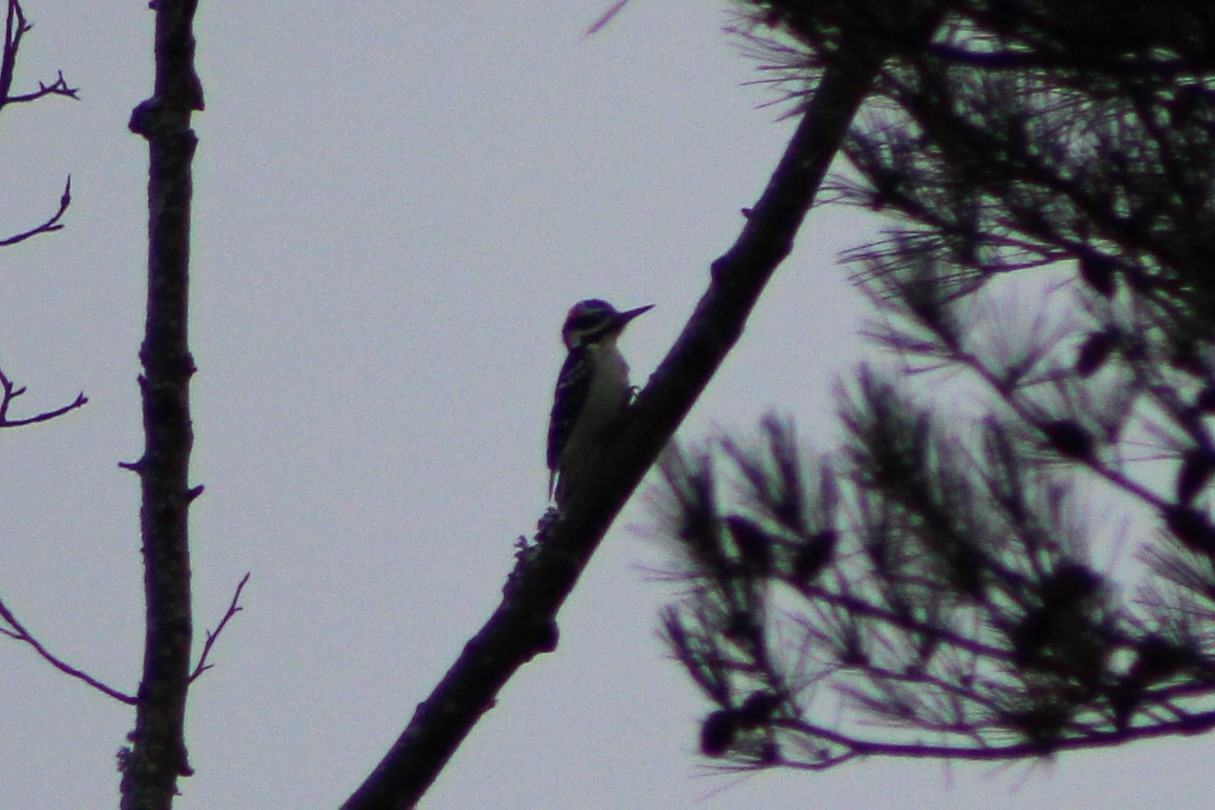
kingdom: Animalia
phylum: Chordata
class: Aves
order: Piciformes
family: Picidae
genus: Leuconotopicus
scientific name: Leuconotopicus villosus
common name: Hairy woodpecker
